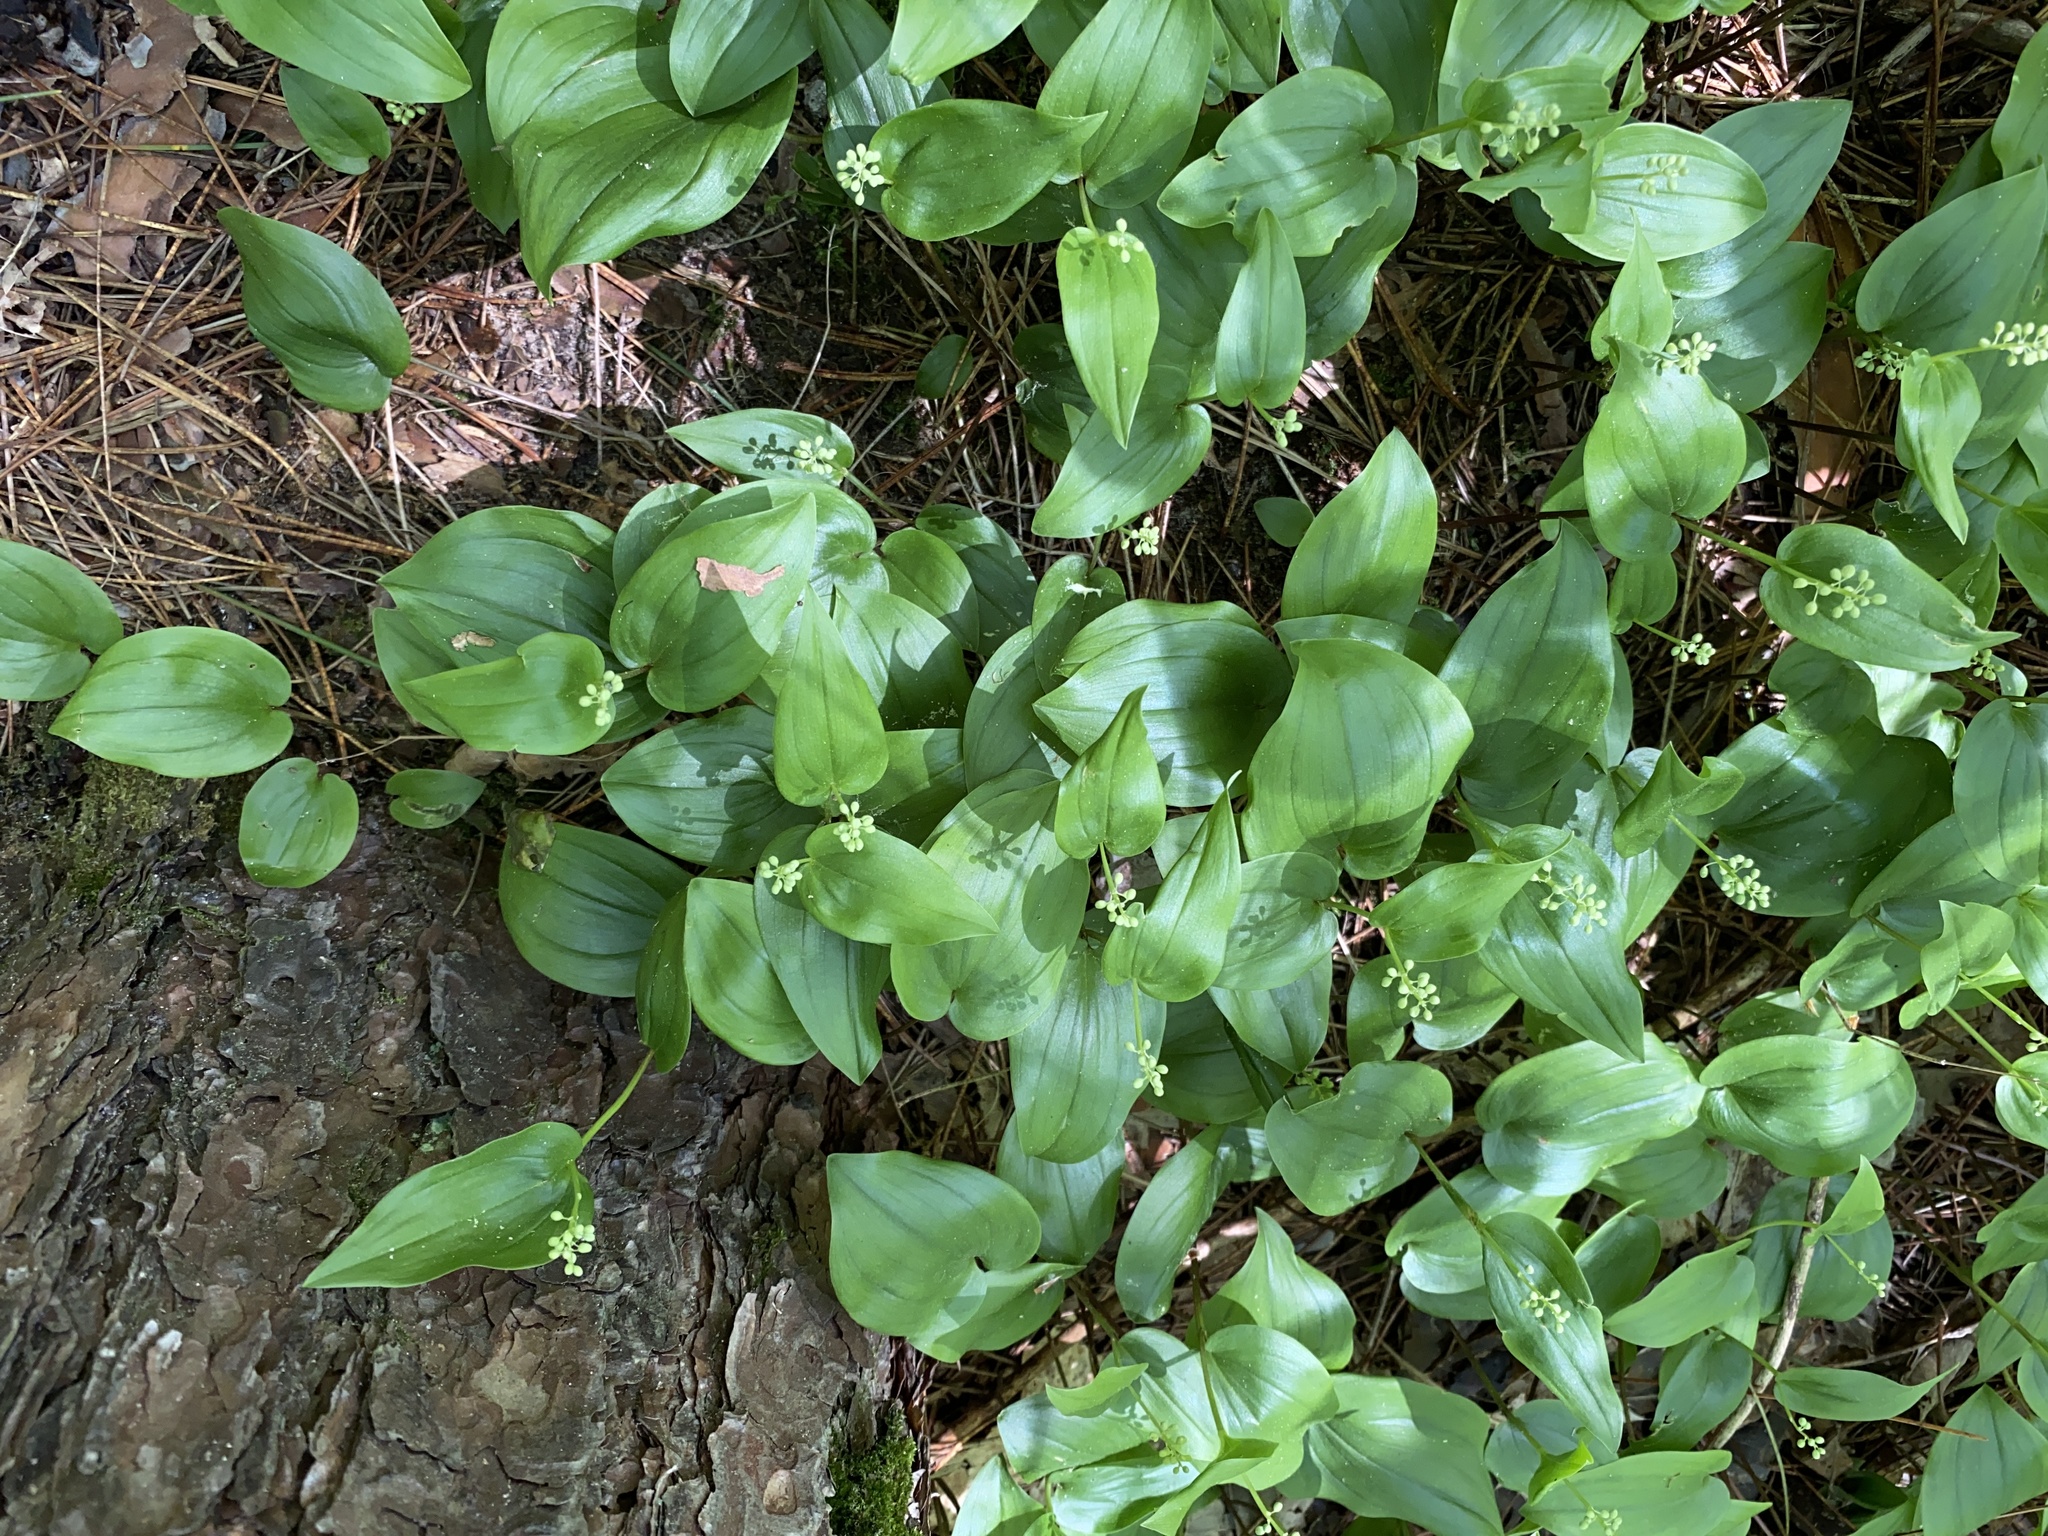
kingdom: Plantae
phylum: Tracheophyta
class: Liliopsida
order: Asparagales
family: Asparagaceae
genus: Maianthemum
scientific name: Maianthemum canadense
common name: False lily-of-the-valley
